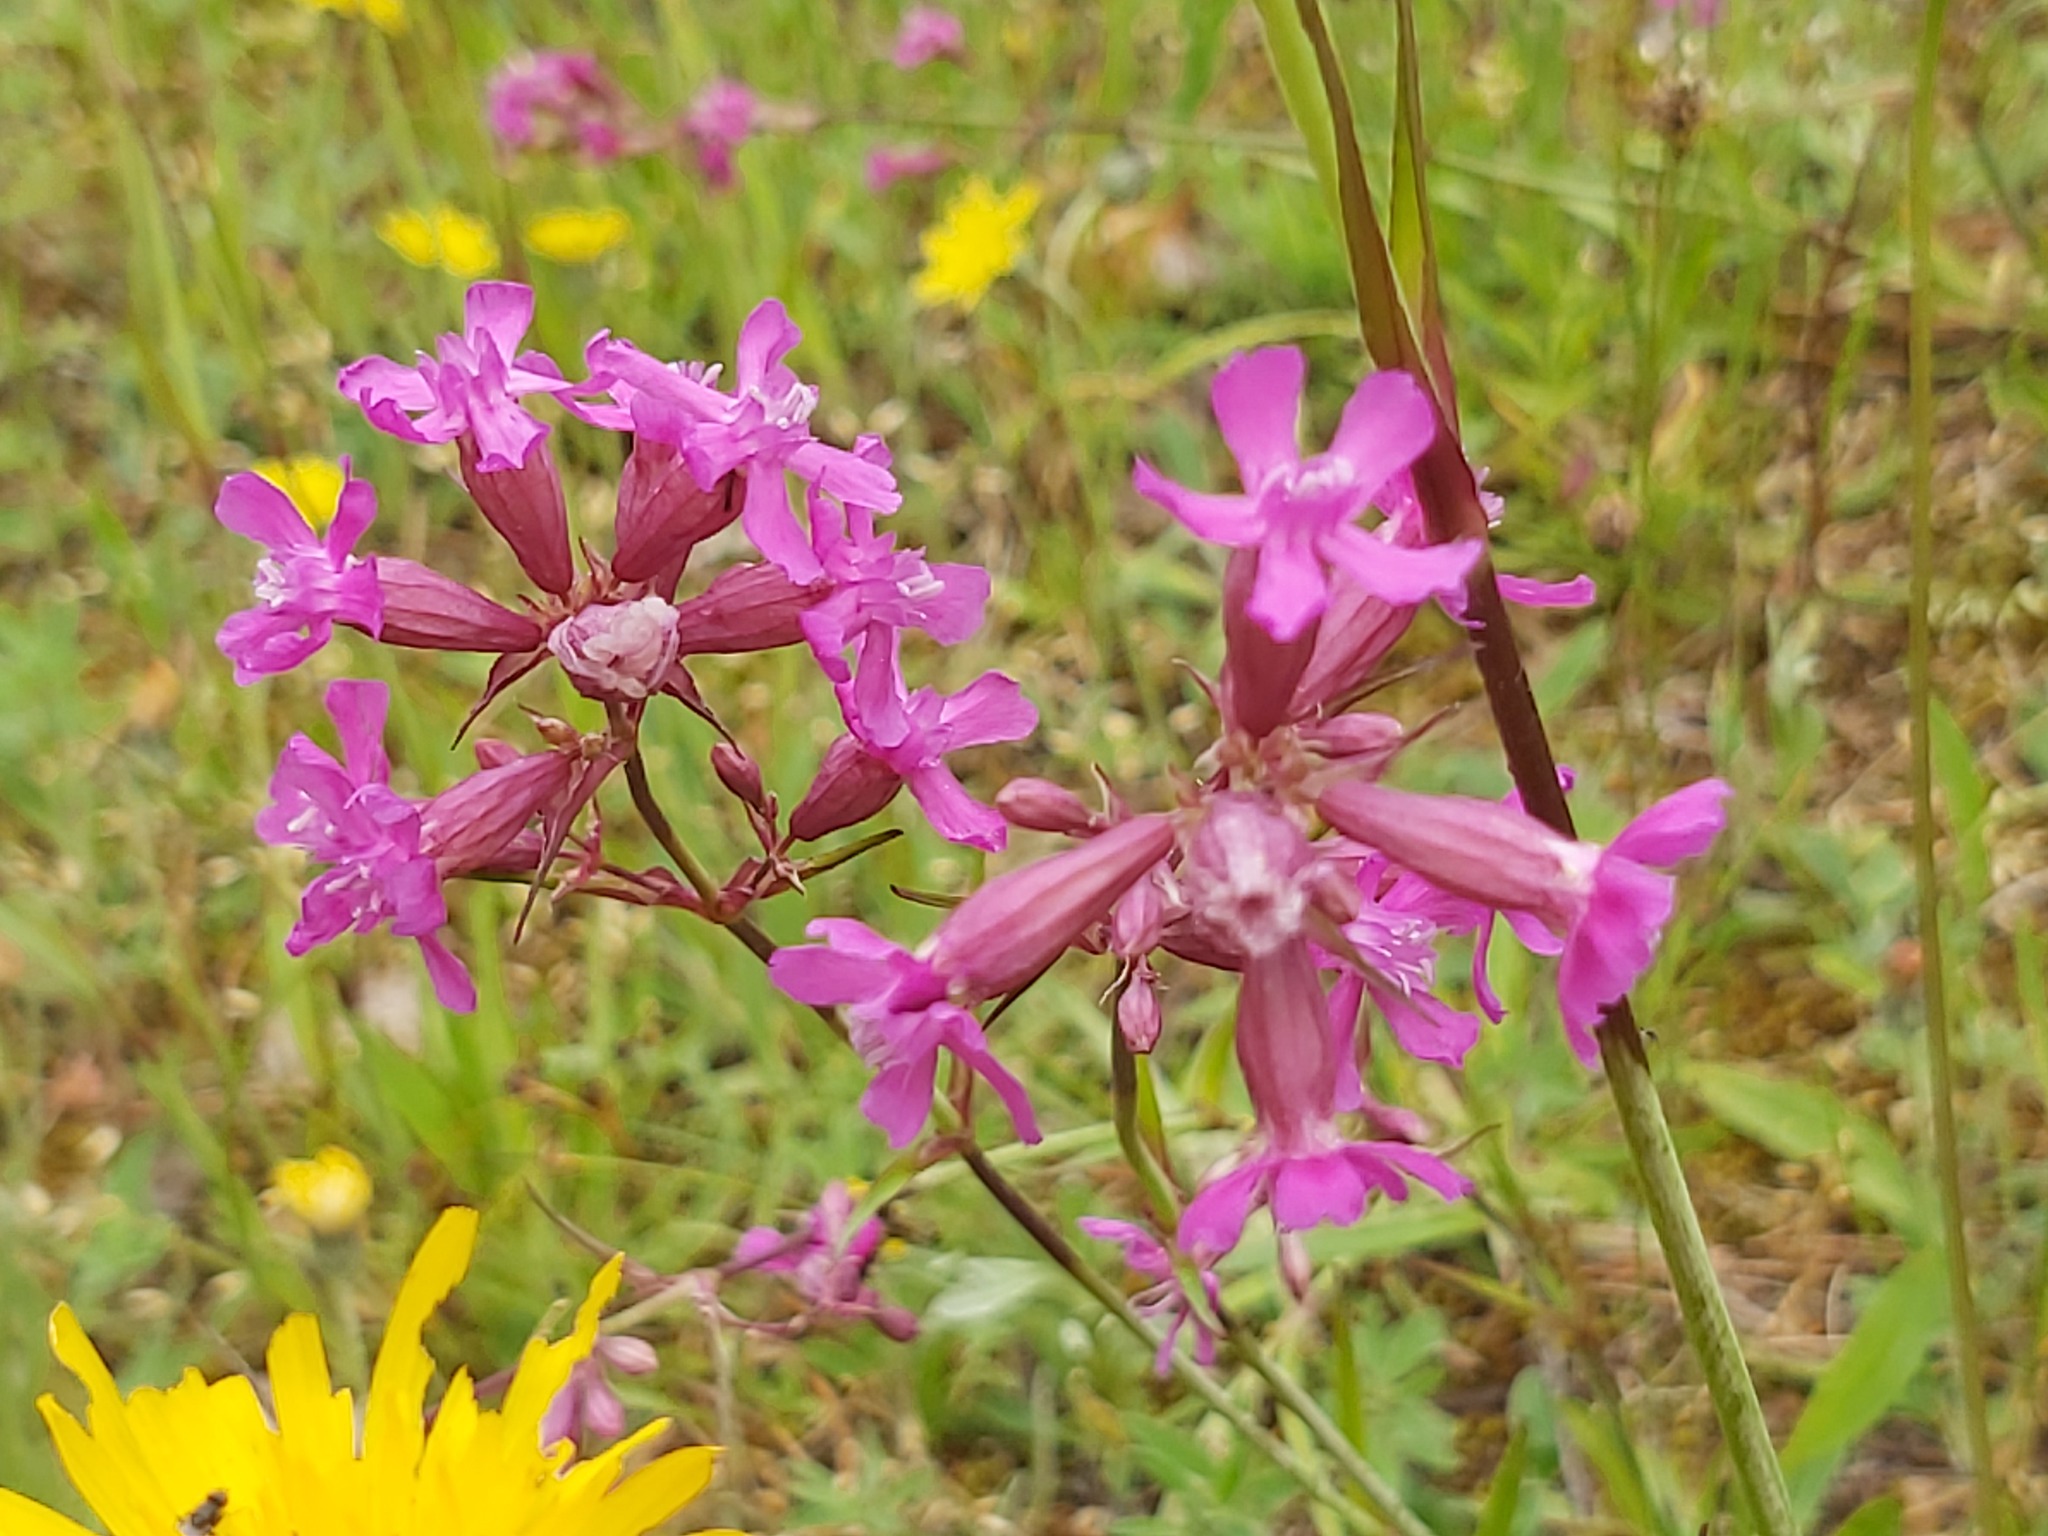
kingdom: Plantae
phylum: Tracheophyta
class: Magnoliopsida
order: Caryophyllales
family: Caryophyllaceae
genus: Viscaria
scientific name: Viscaria vulgaris
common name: Clammy campion
